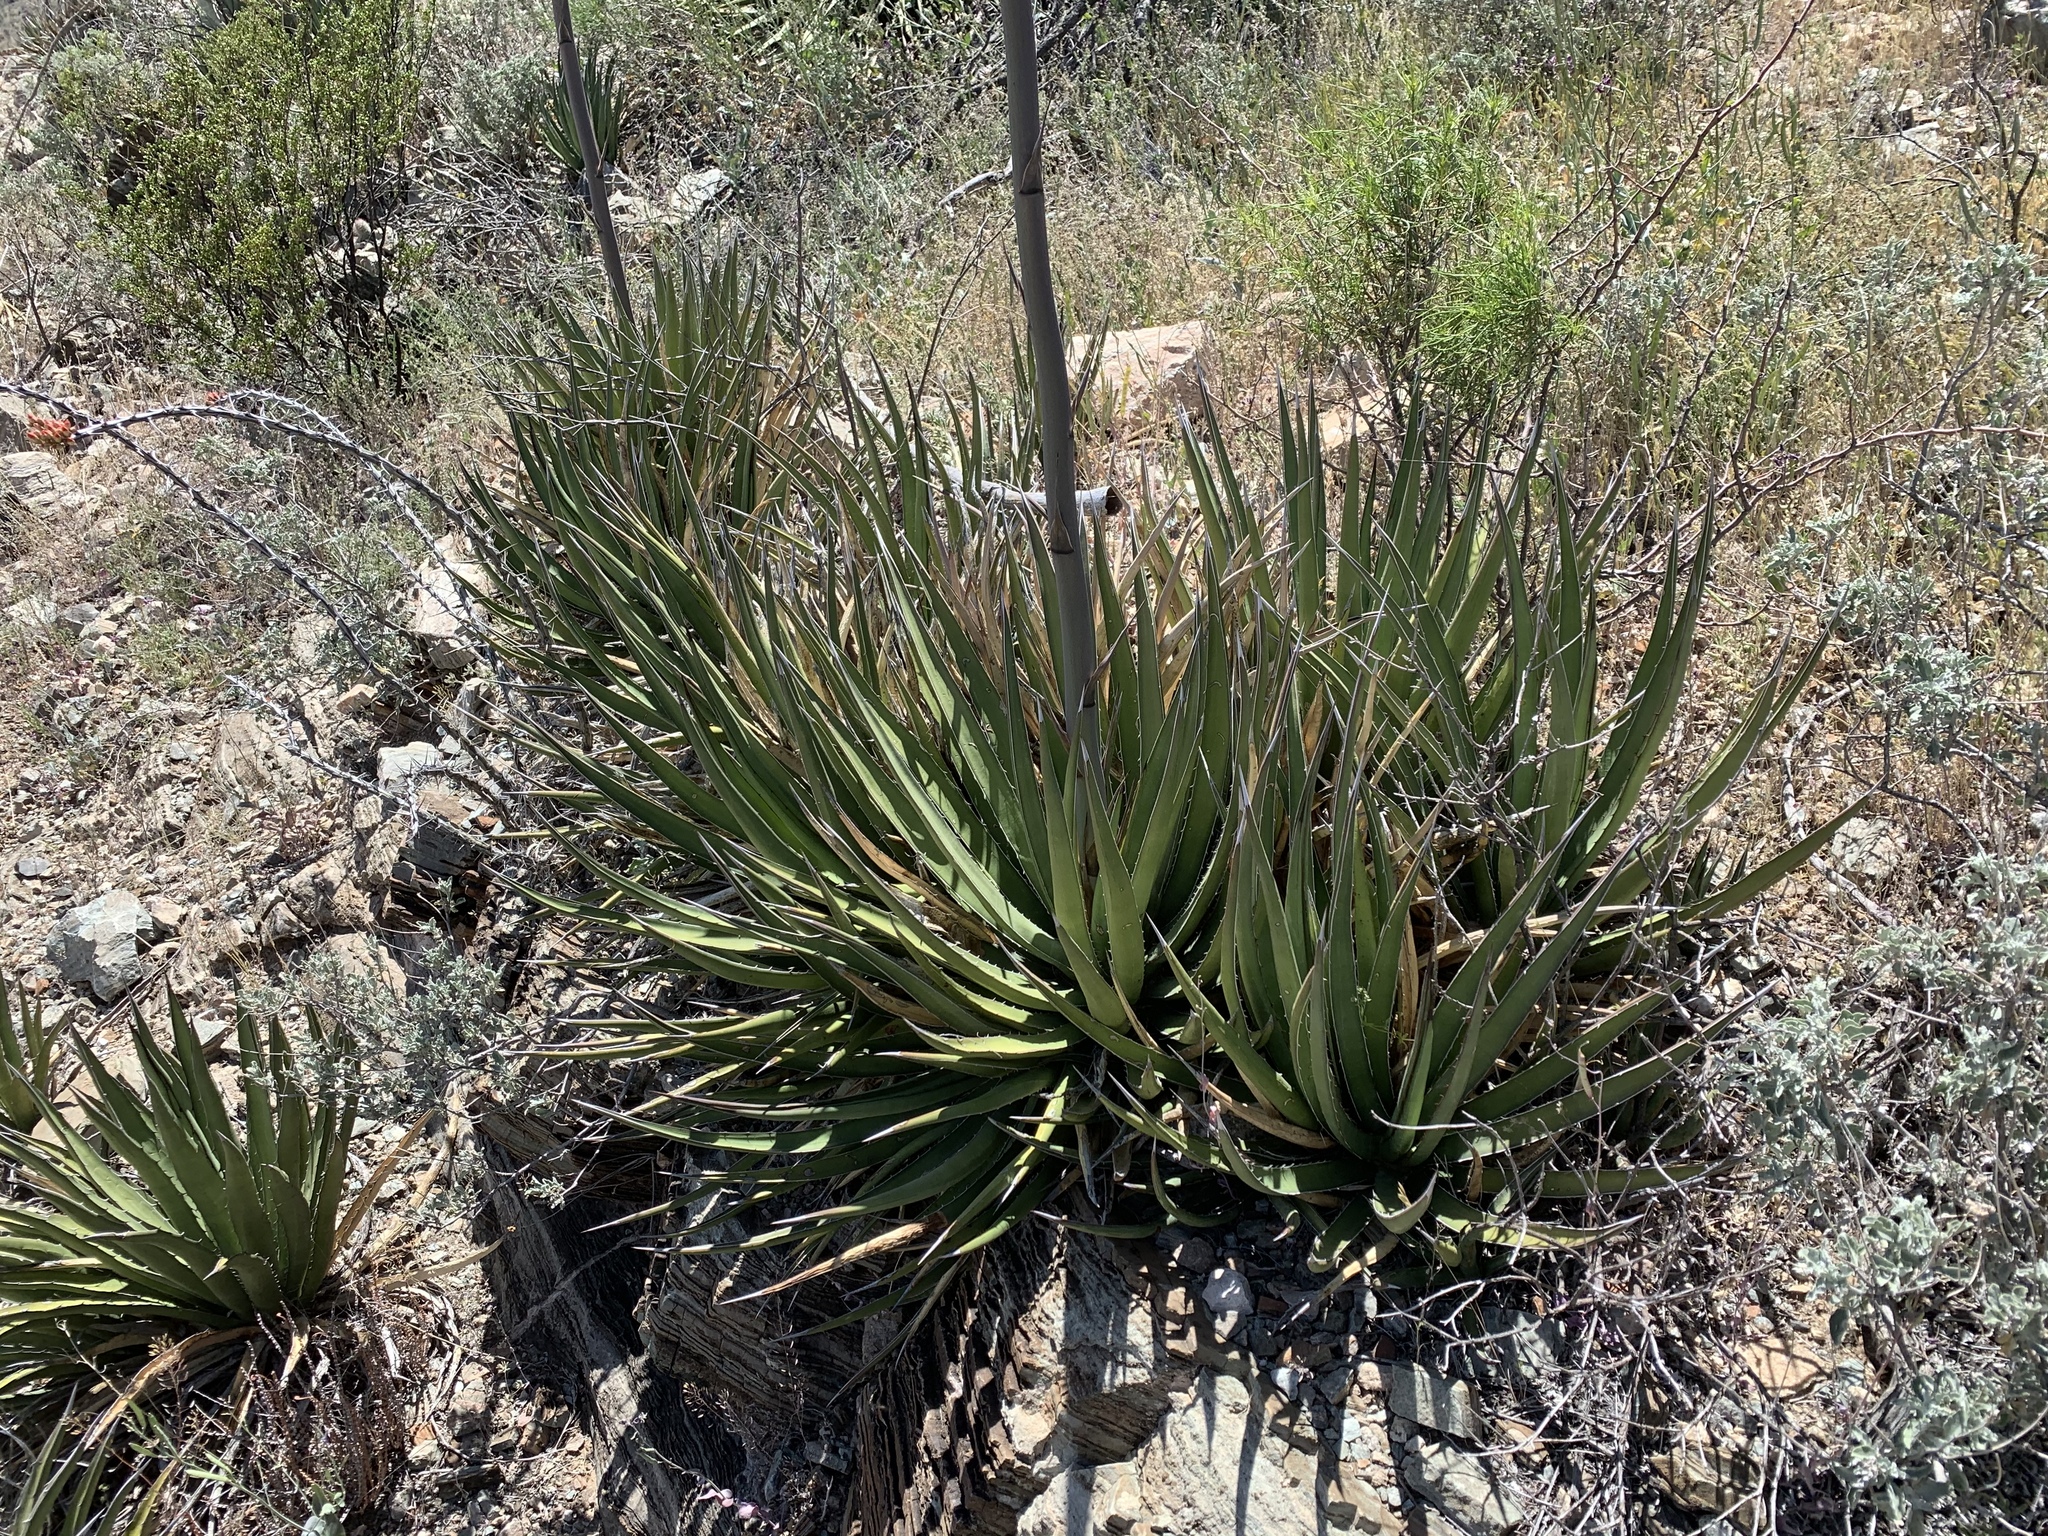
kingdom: Plantae
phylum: Tracheophyta
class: Liliopsida
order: Asparagales
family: Asparagaceae
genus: Agave
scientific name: Agave lechuguilla
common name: Lecheguilla agave
